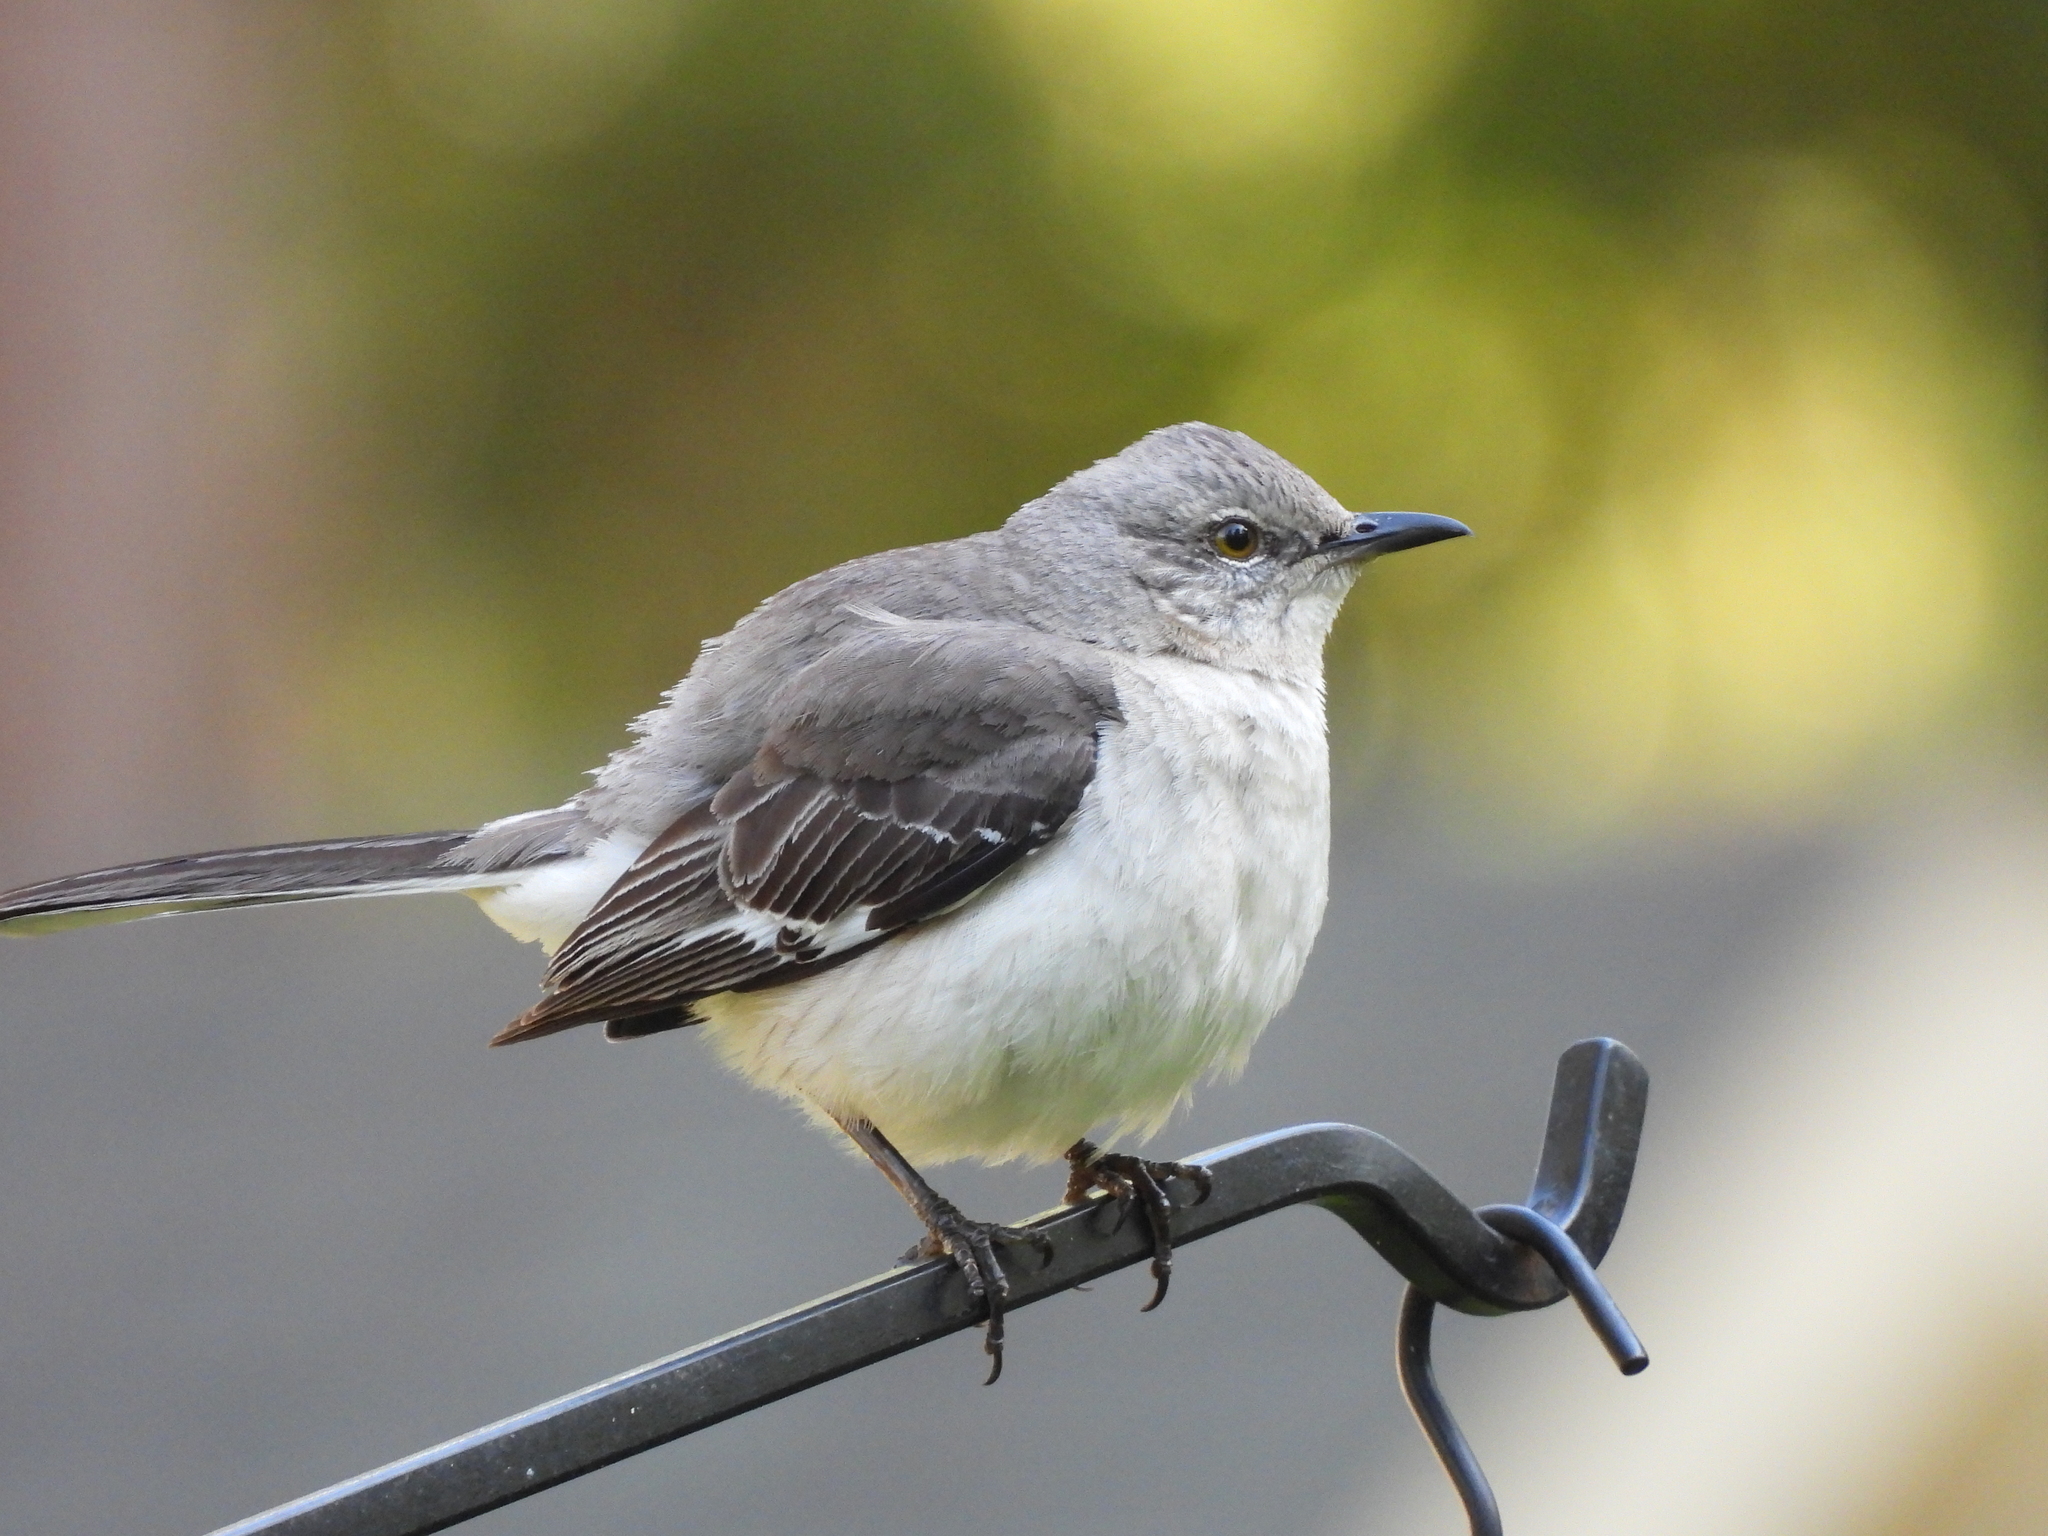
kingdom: Animalia
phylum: Chordata
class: Aves
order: Passeriformes
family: Mimidae
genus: Mimus
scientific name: Mimus polyglottos
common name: Northern mockingbird
